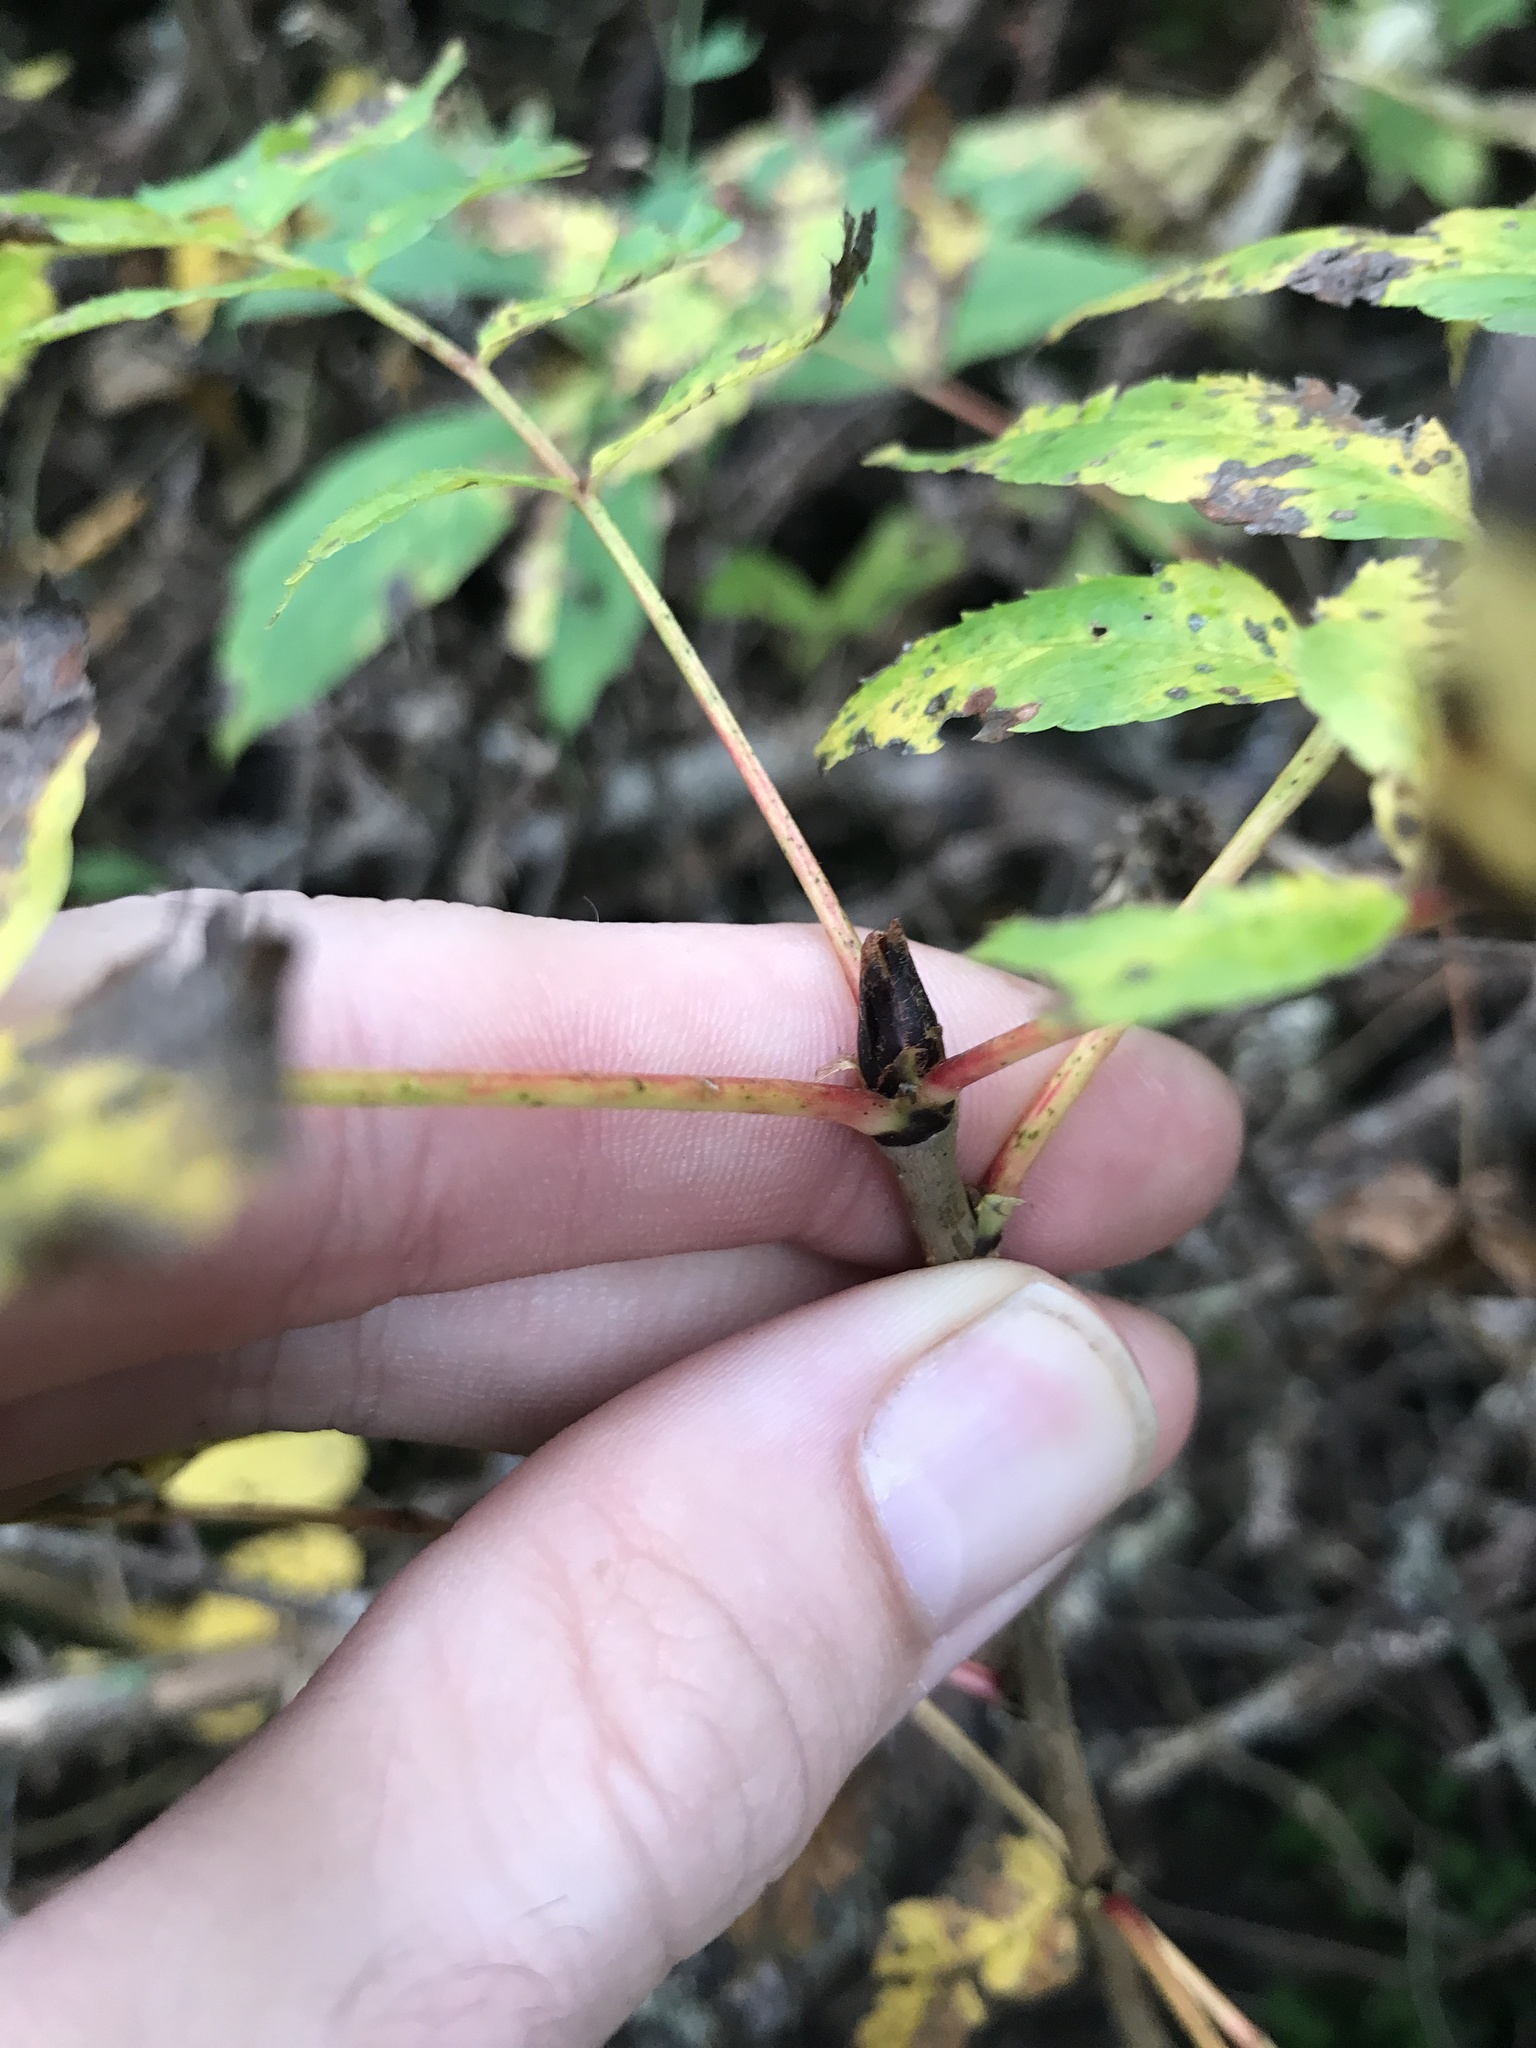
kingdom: Plantae
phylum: Tracheophyta
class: Magnoliopsida
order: Rosales
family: Rosaceae
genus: Sorbus
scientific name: Sorbus americana
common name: American mountain-ash
